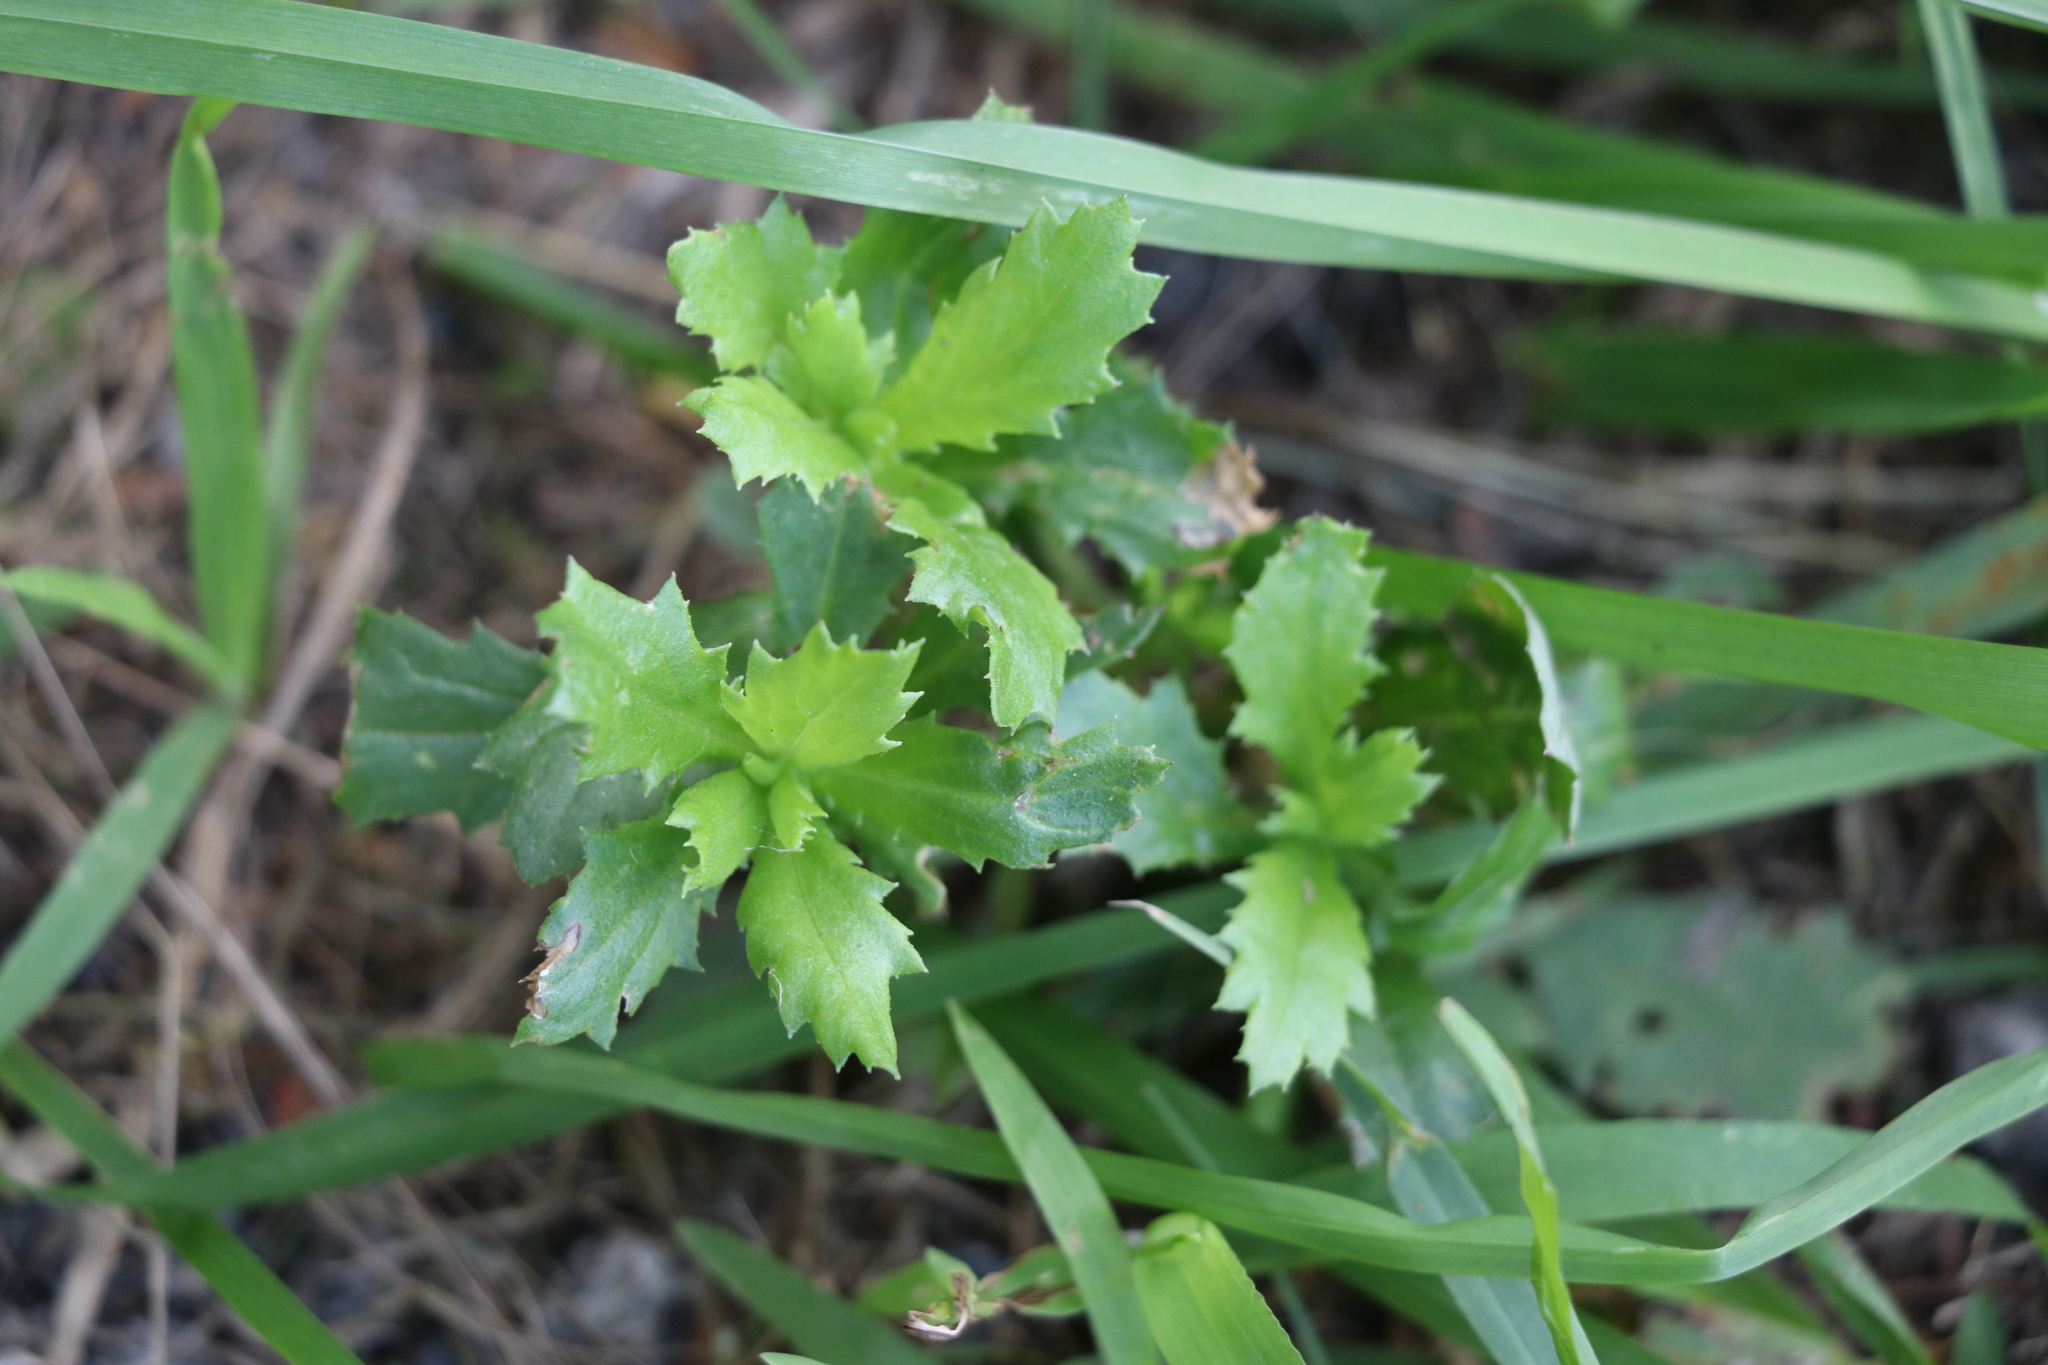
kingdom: Plantae
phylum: Tracheophyta
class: Magnoliopsida
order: Asterales
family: Asteraceae
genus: Senecio
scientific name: Senecio glastifolius
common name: Woad-leaved ragwort
